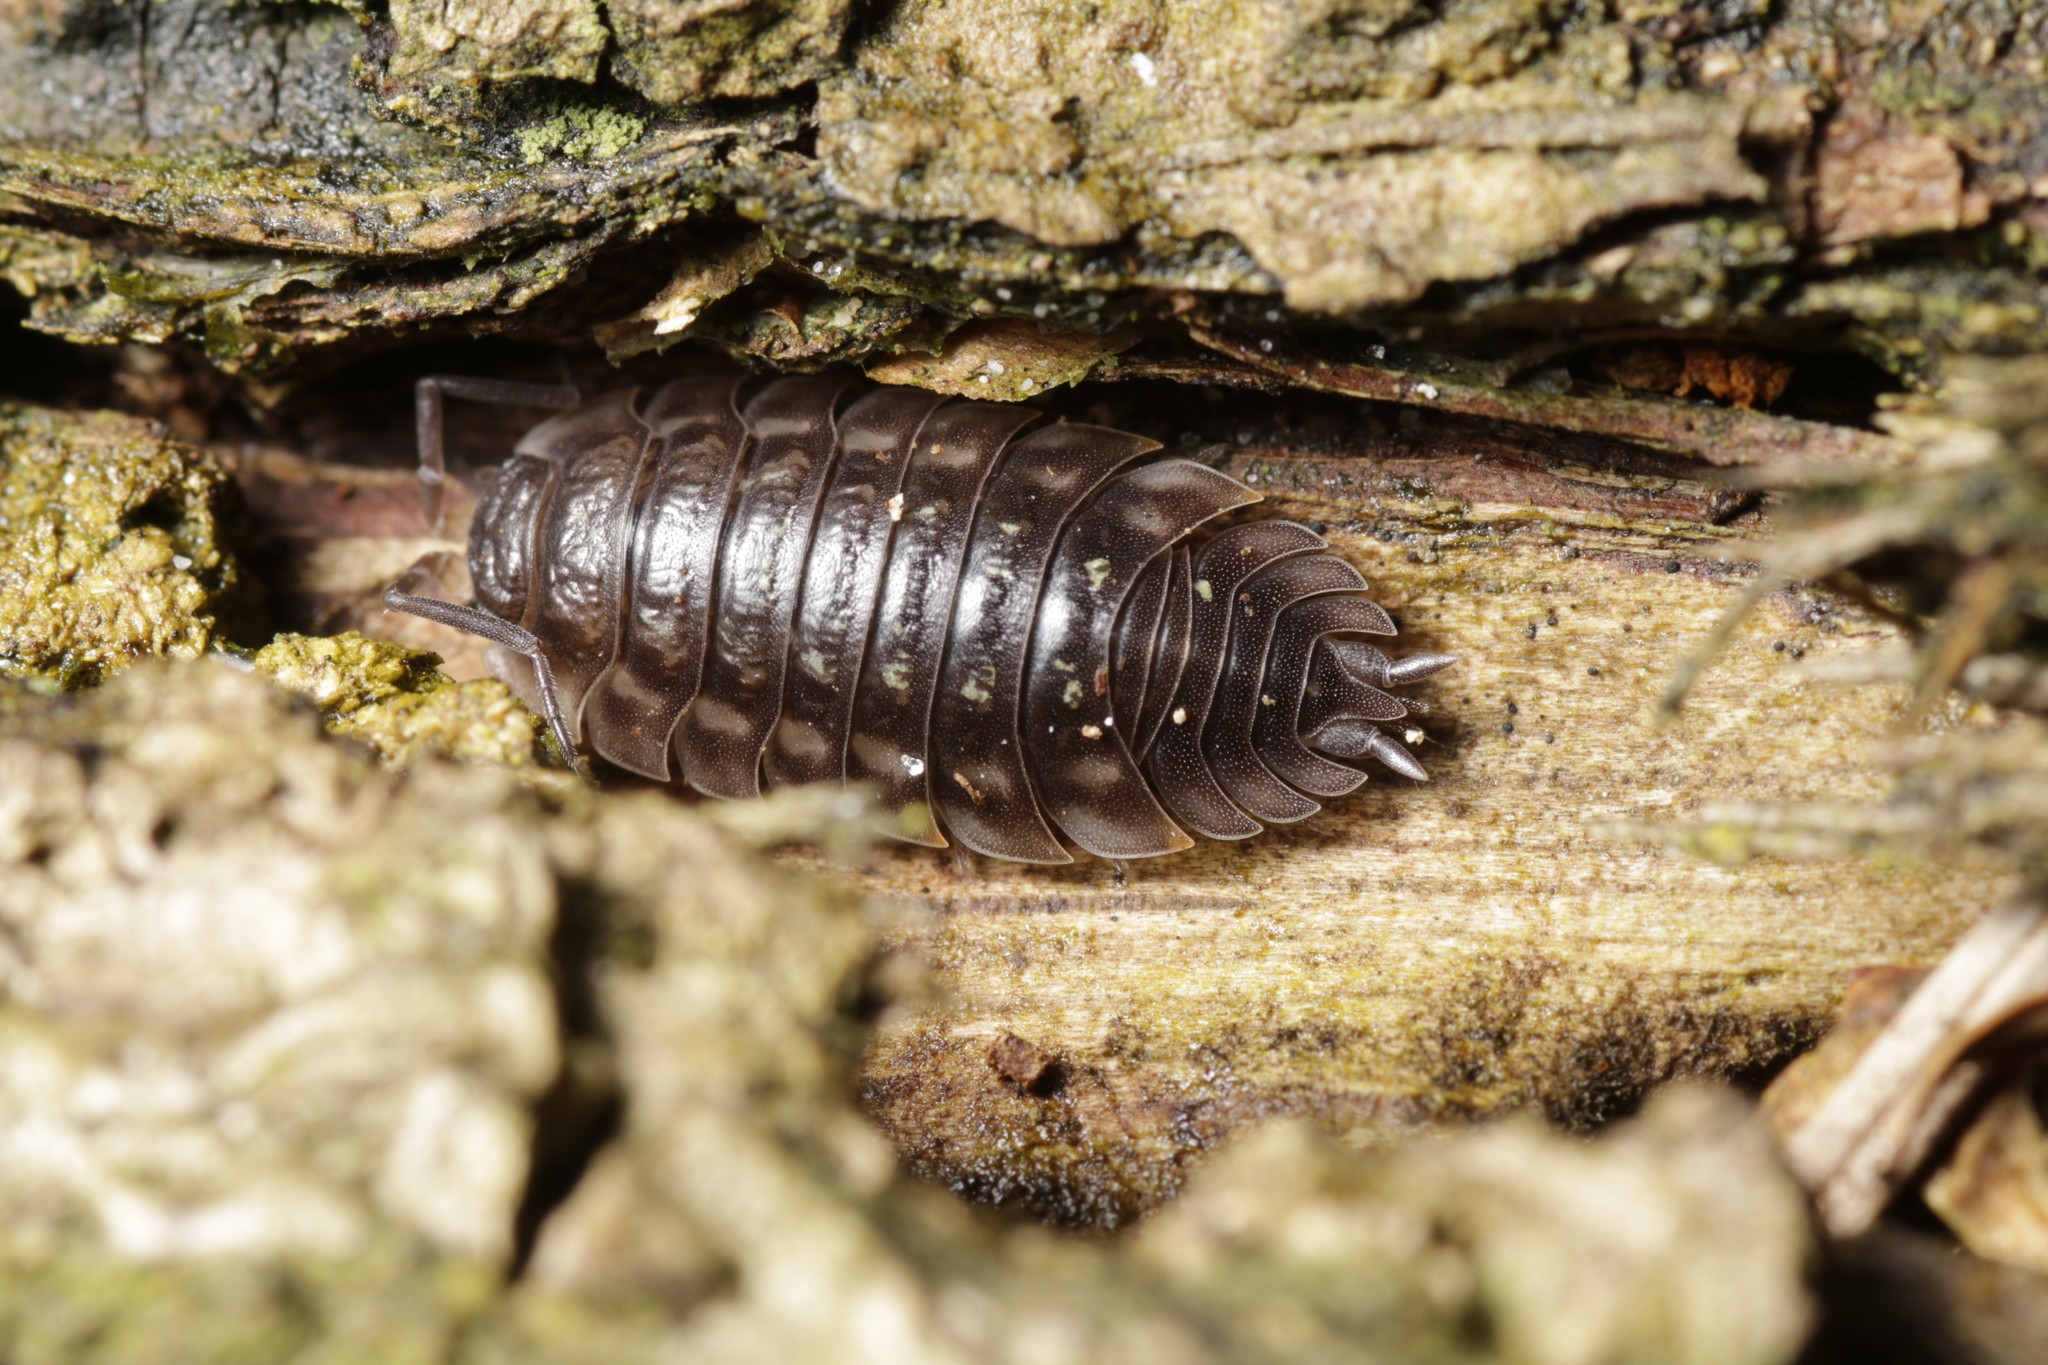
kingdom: Animalia
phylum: Arthropoda
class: Malacostraca
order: Isopoda
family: Oniscidae
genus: Oniscus
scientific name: Oniscus asellus
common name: Common shiny woodlouse
